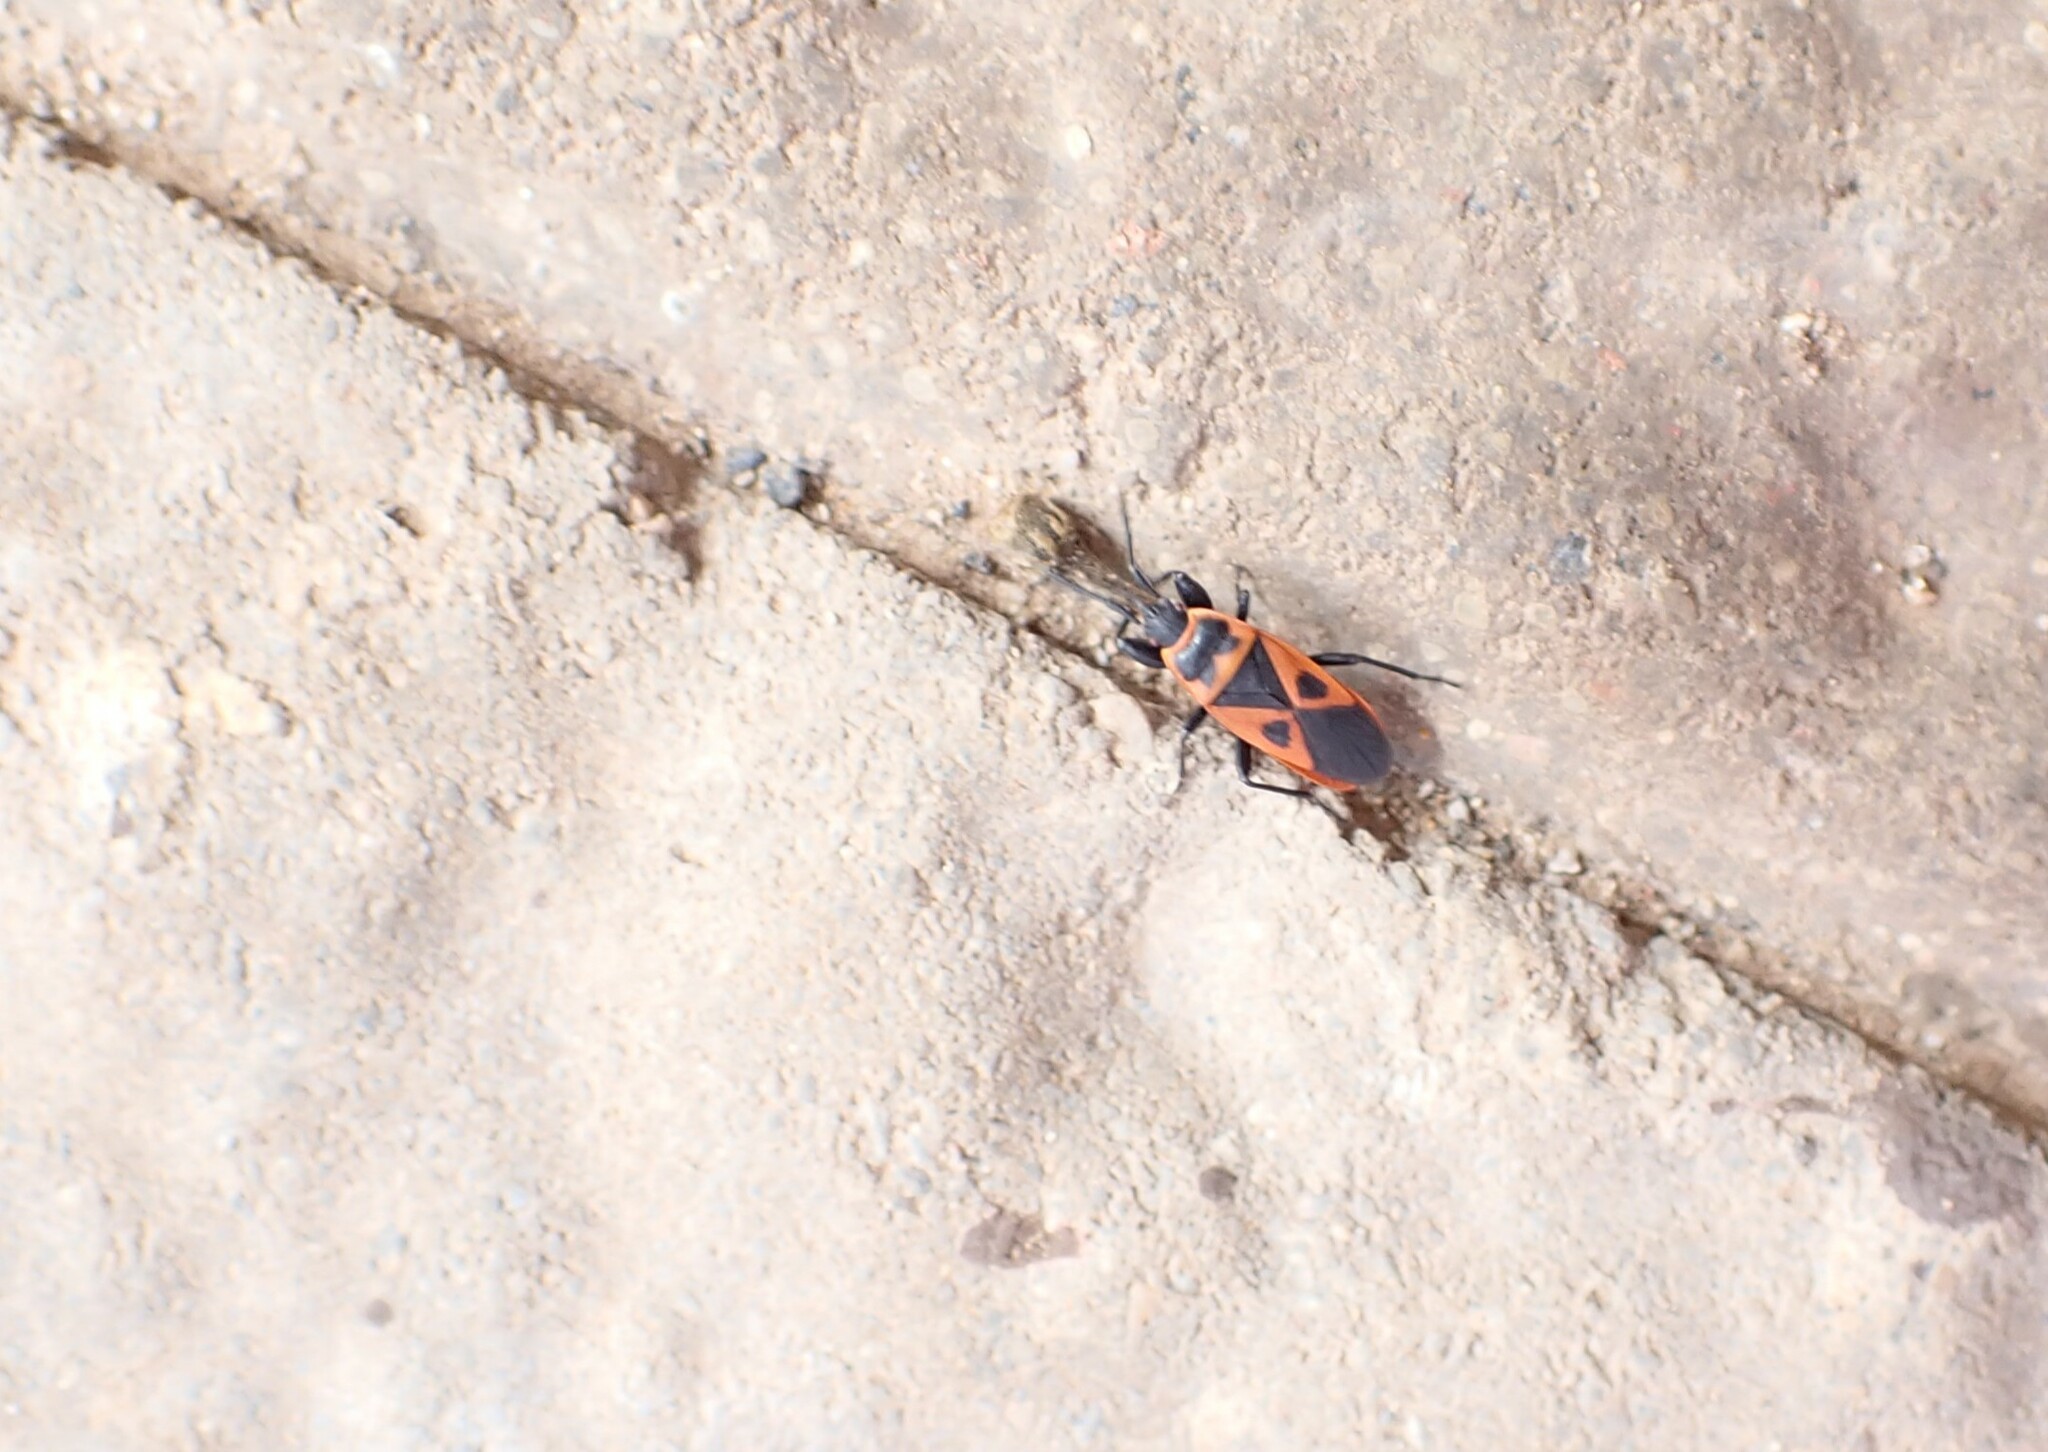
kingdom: Animalia
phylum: Arthropoda
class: Insecta
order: Hemiptera
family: Pyrrhocoridae
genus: Scantius
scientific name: Scantius aegyptius
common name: Red bug
